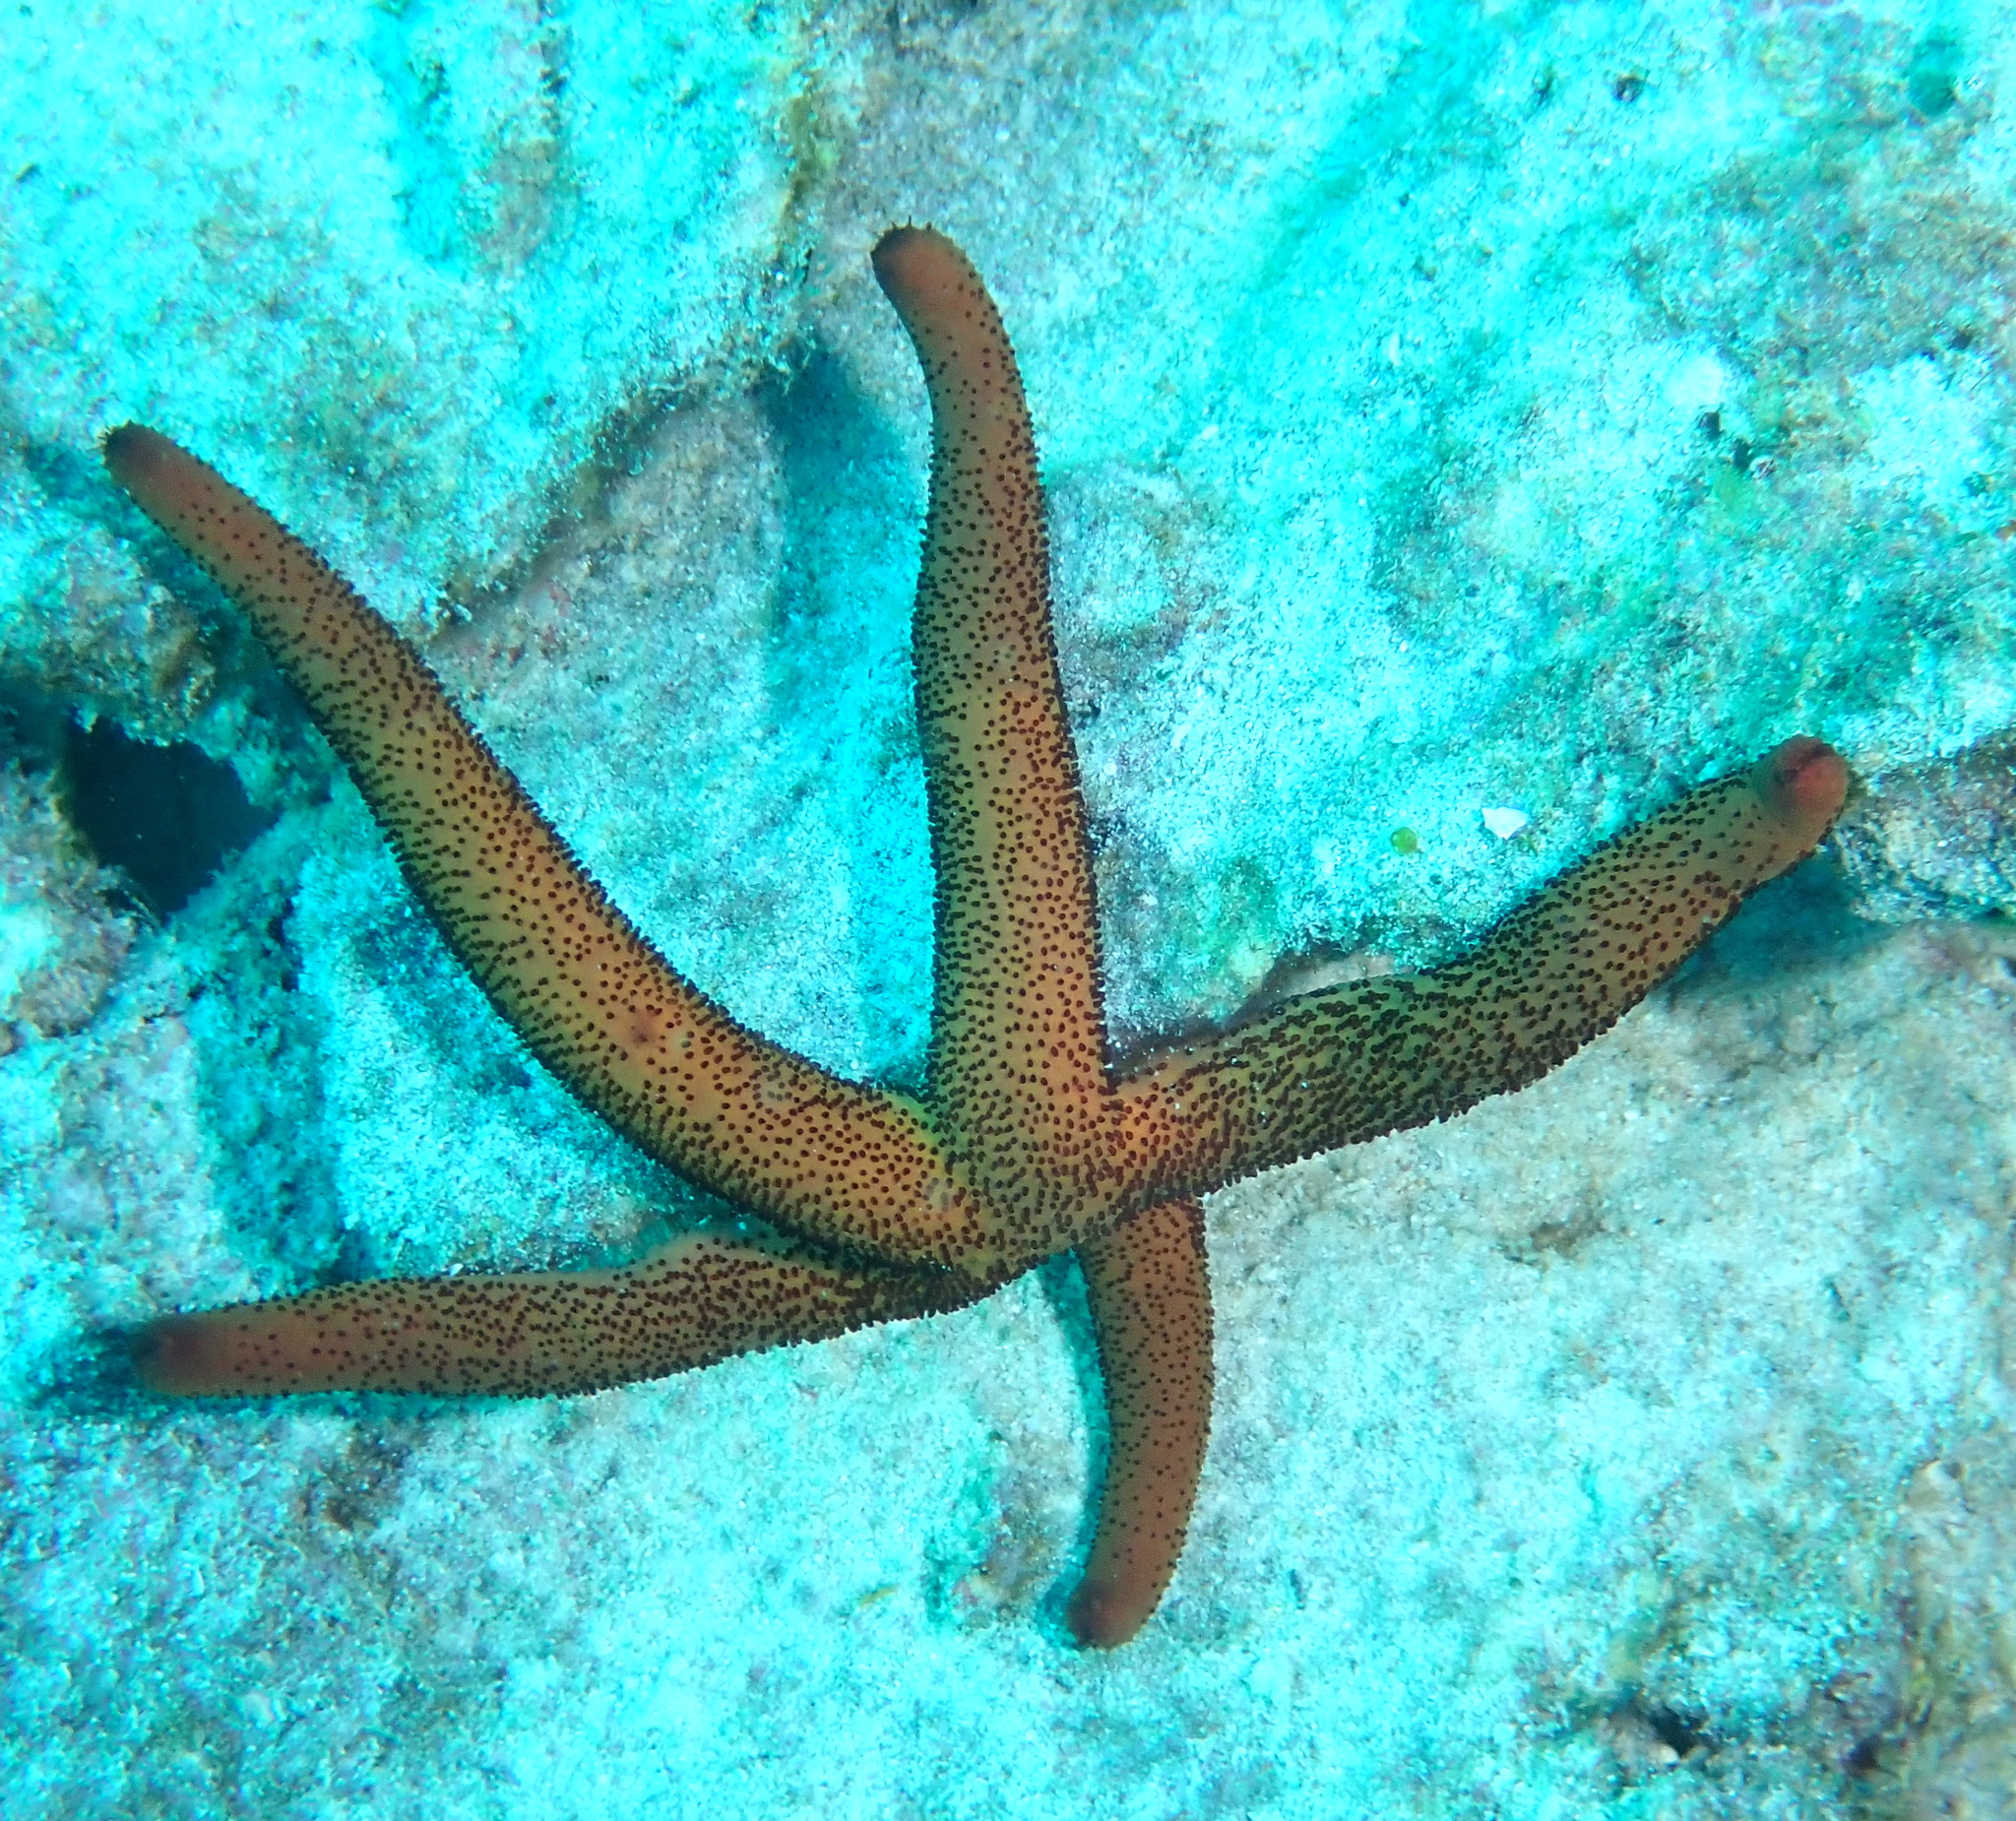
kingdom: Animalia
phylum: Echinodermata
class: Asteroidea
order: Spinulosida
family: Echinasteridae
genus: Echinaster
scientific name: Echinaster luzonicus
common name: Luzon seastar
